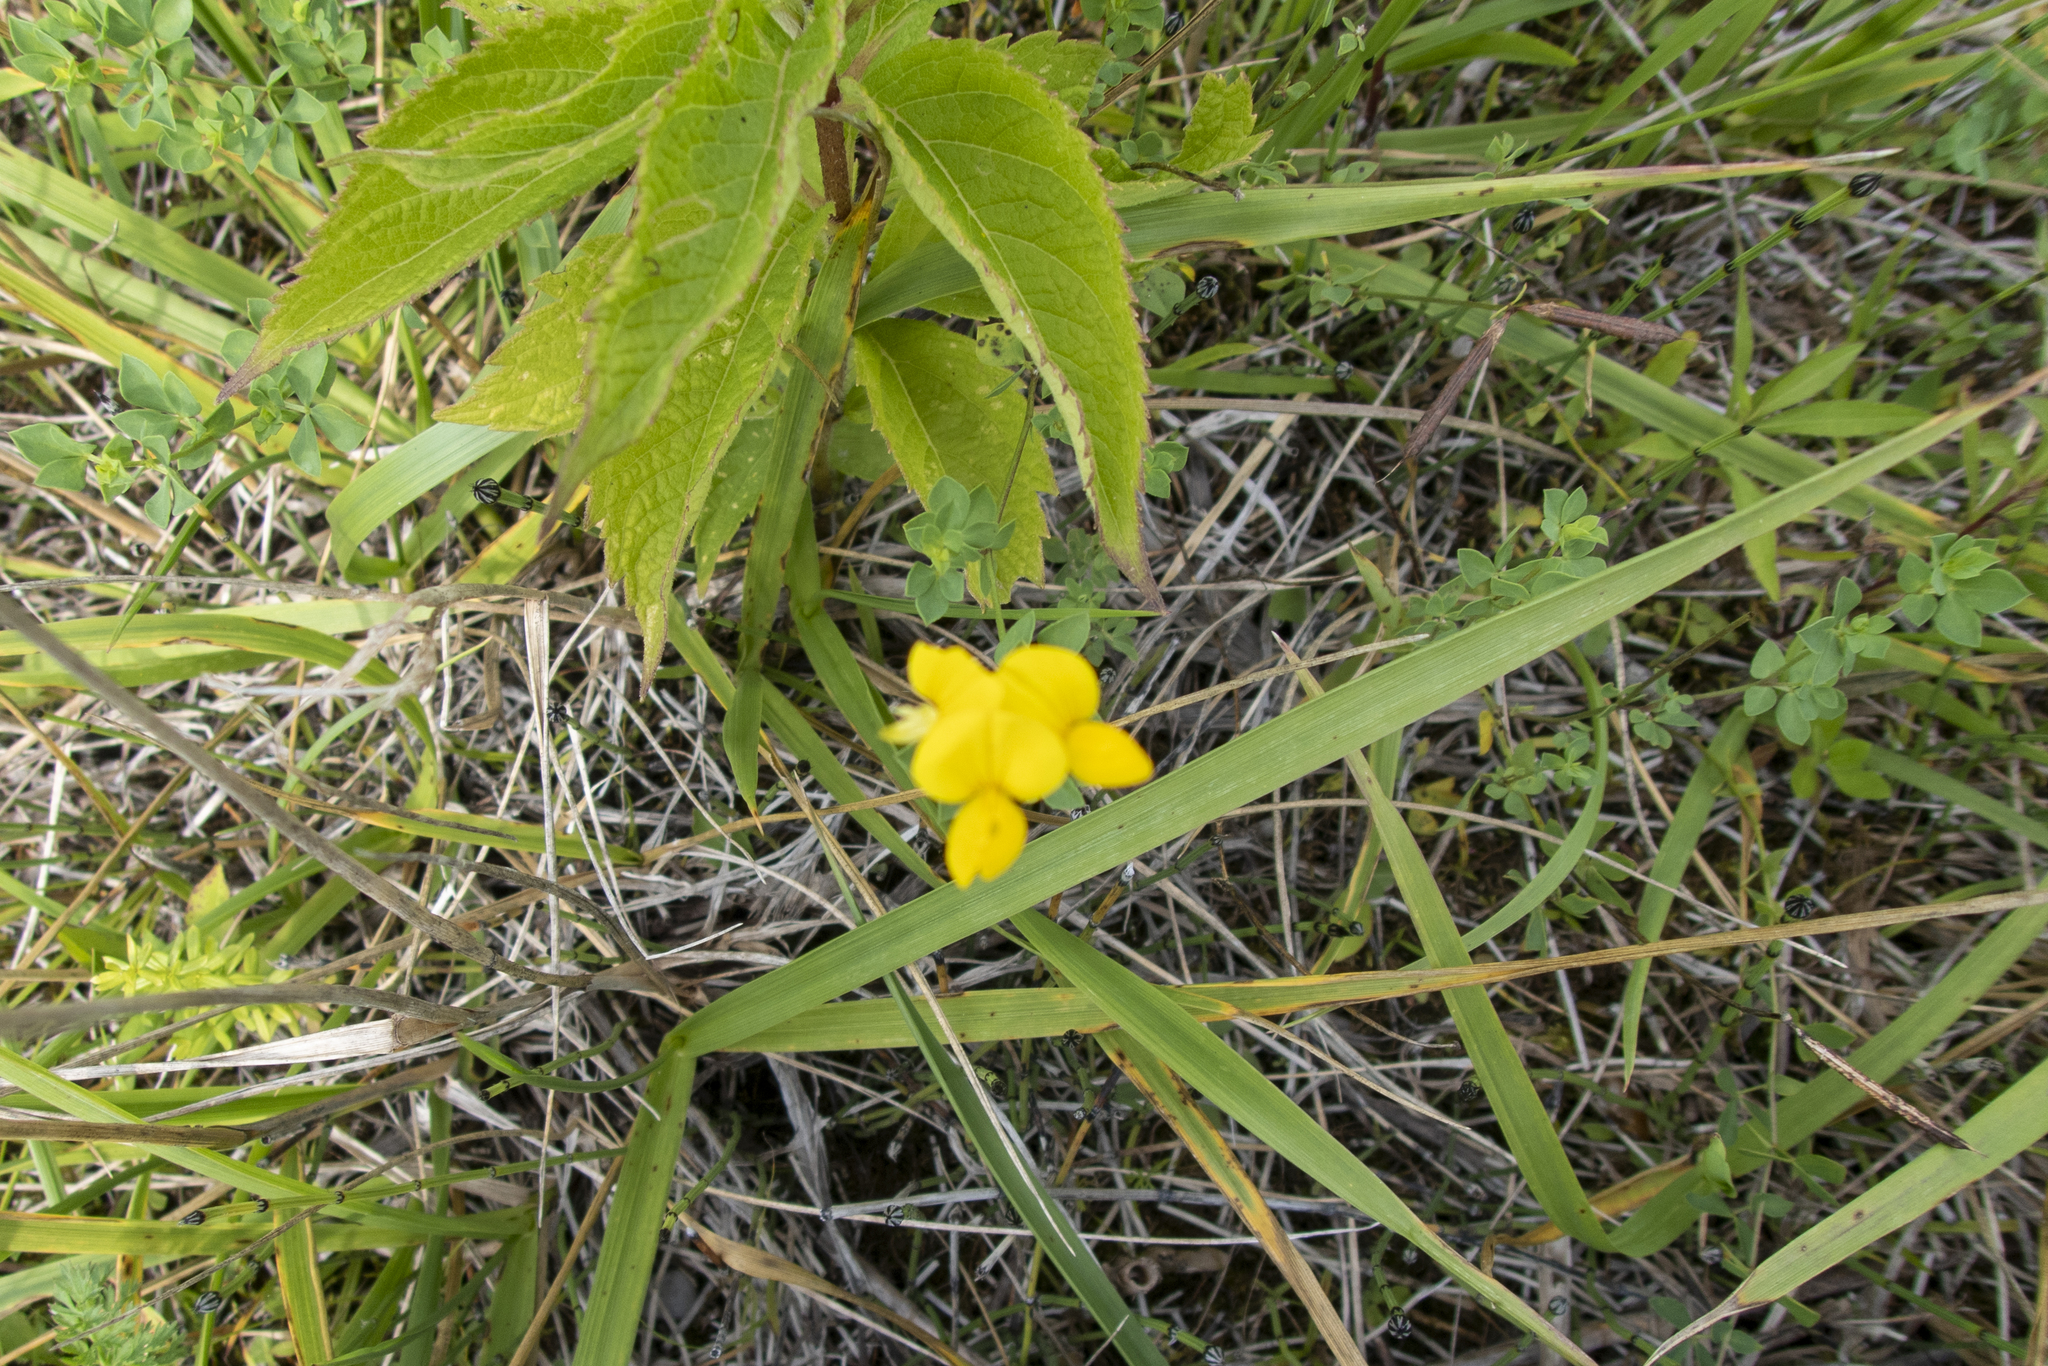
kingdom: Plantae
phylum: Tracheophyta
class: Magnoliopsida
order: Fabales
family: Fabaceae
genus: Lotus
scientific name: Lotus corniculatus
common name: Common bird's-foot-trefoil
